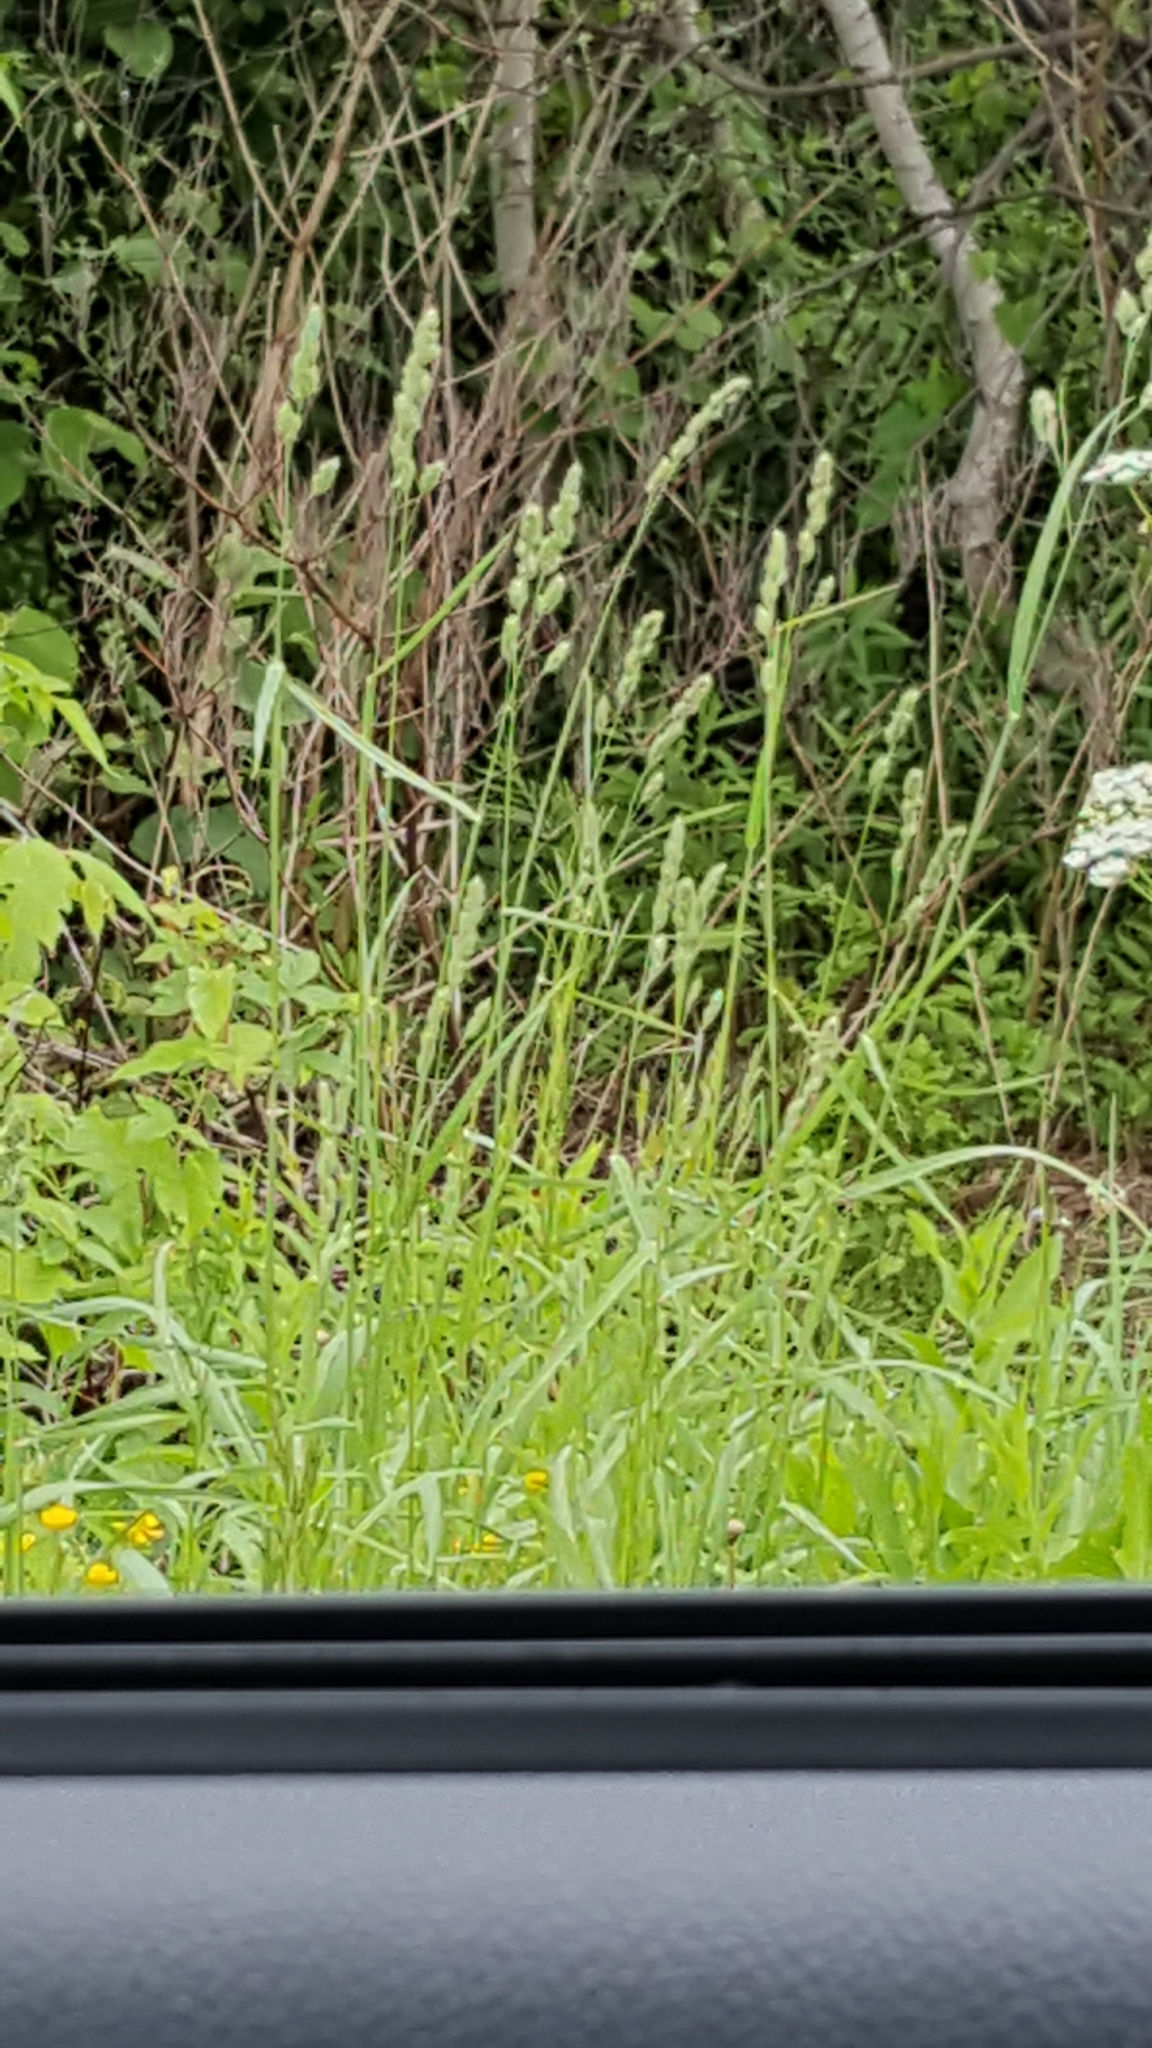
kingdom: Plantae
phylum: Tracheophyta
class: Liliopsida
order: Poales
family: Poaceae
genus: Dactylis
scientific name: Dactylis glomerata
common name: Orchardgrass
